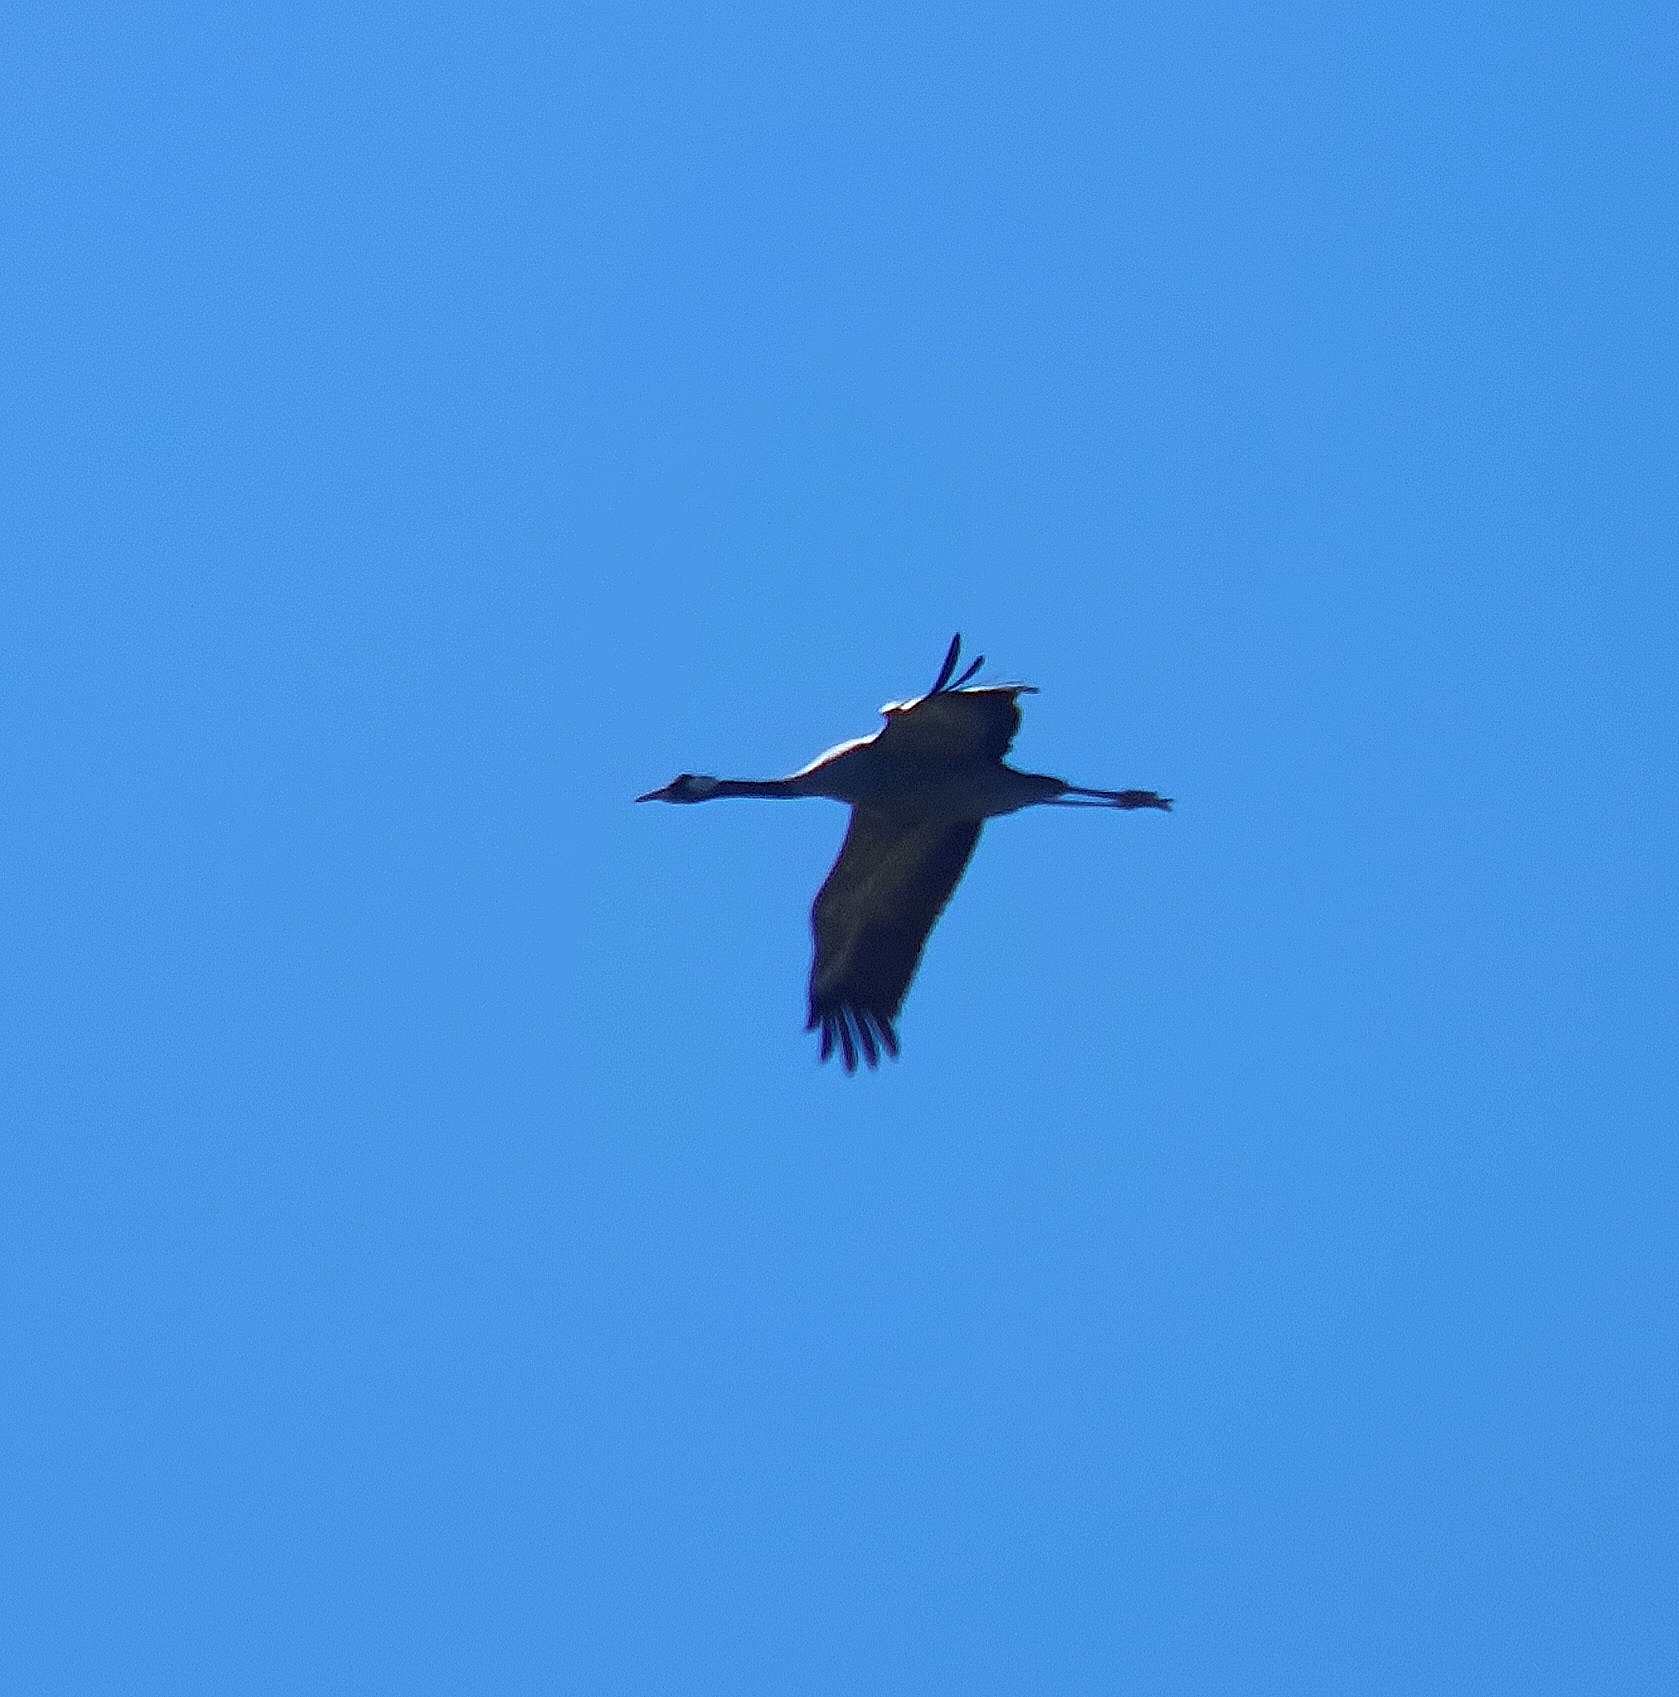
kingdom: Animalia
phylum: Chordata
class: Aves
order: Gruiformes
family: Gruidae
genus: Grus
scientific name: Grus grus
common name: Common crane
